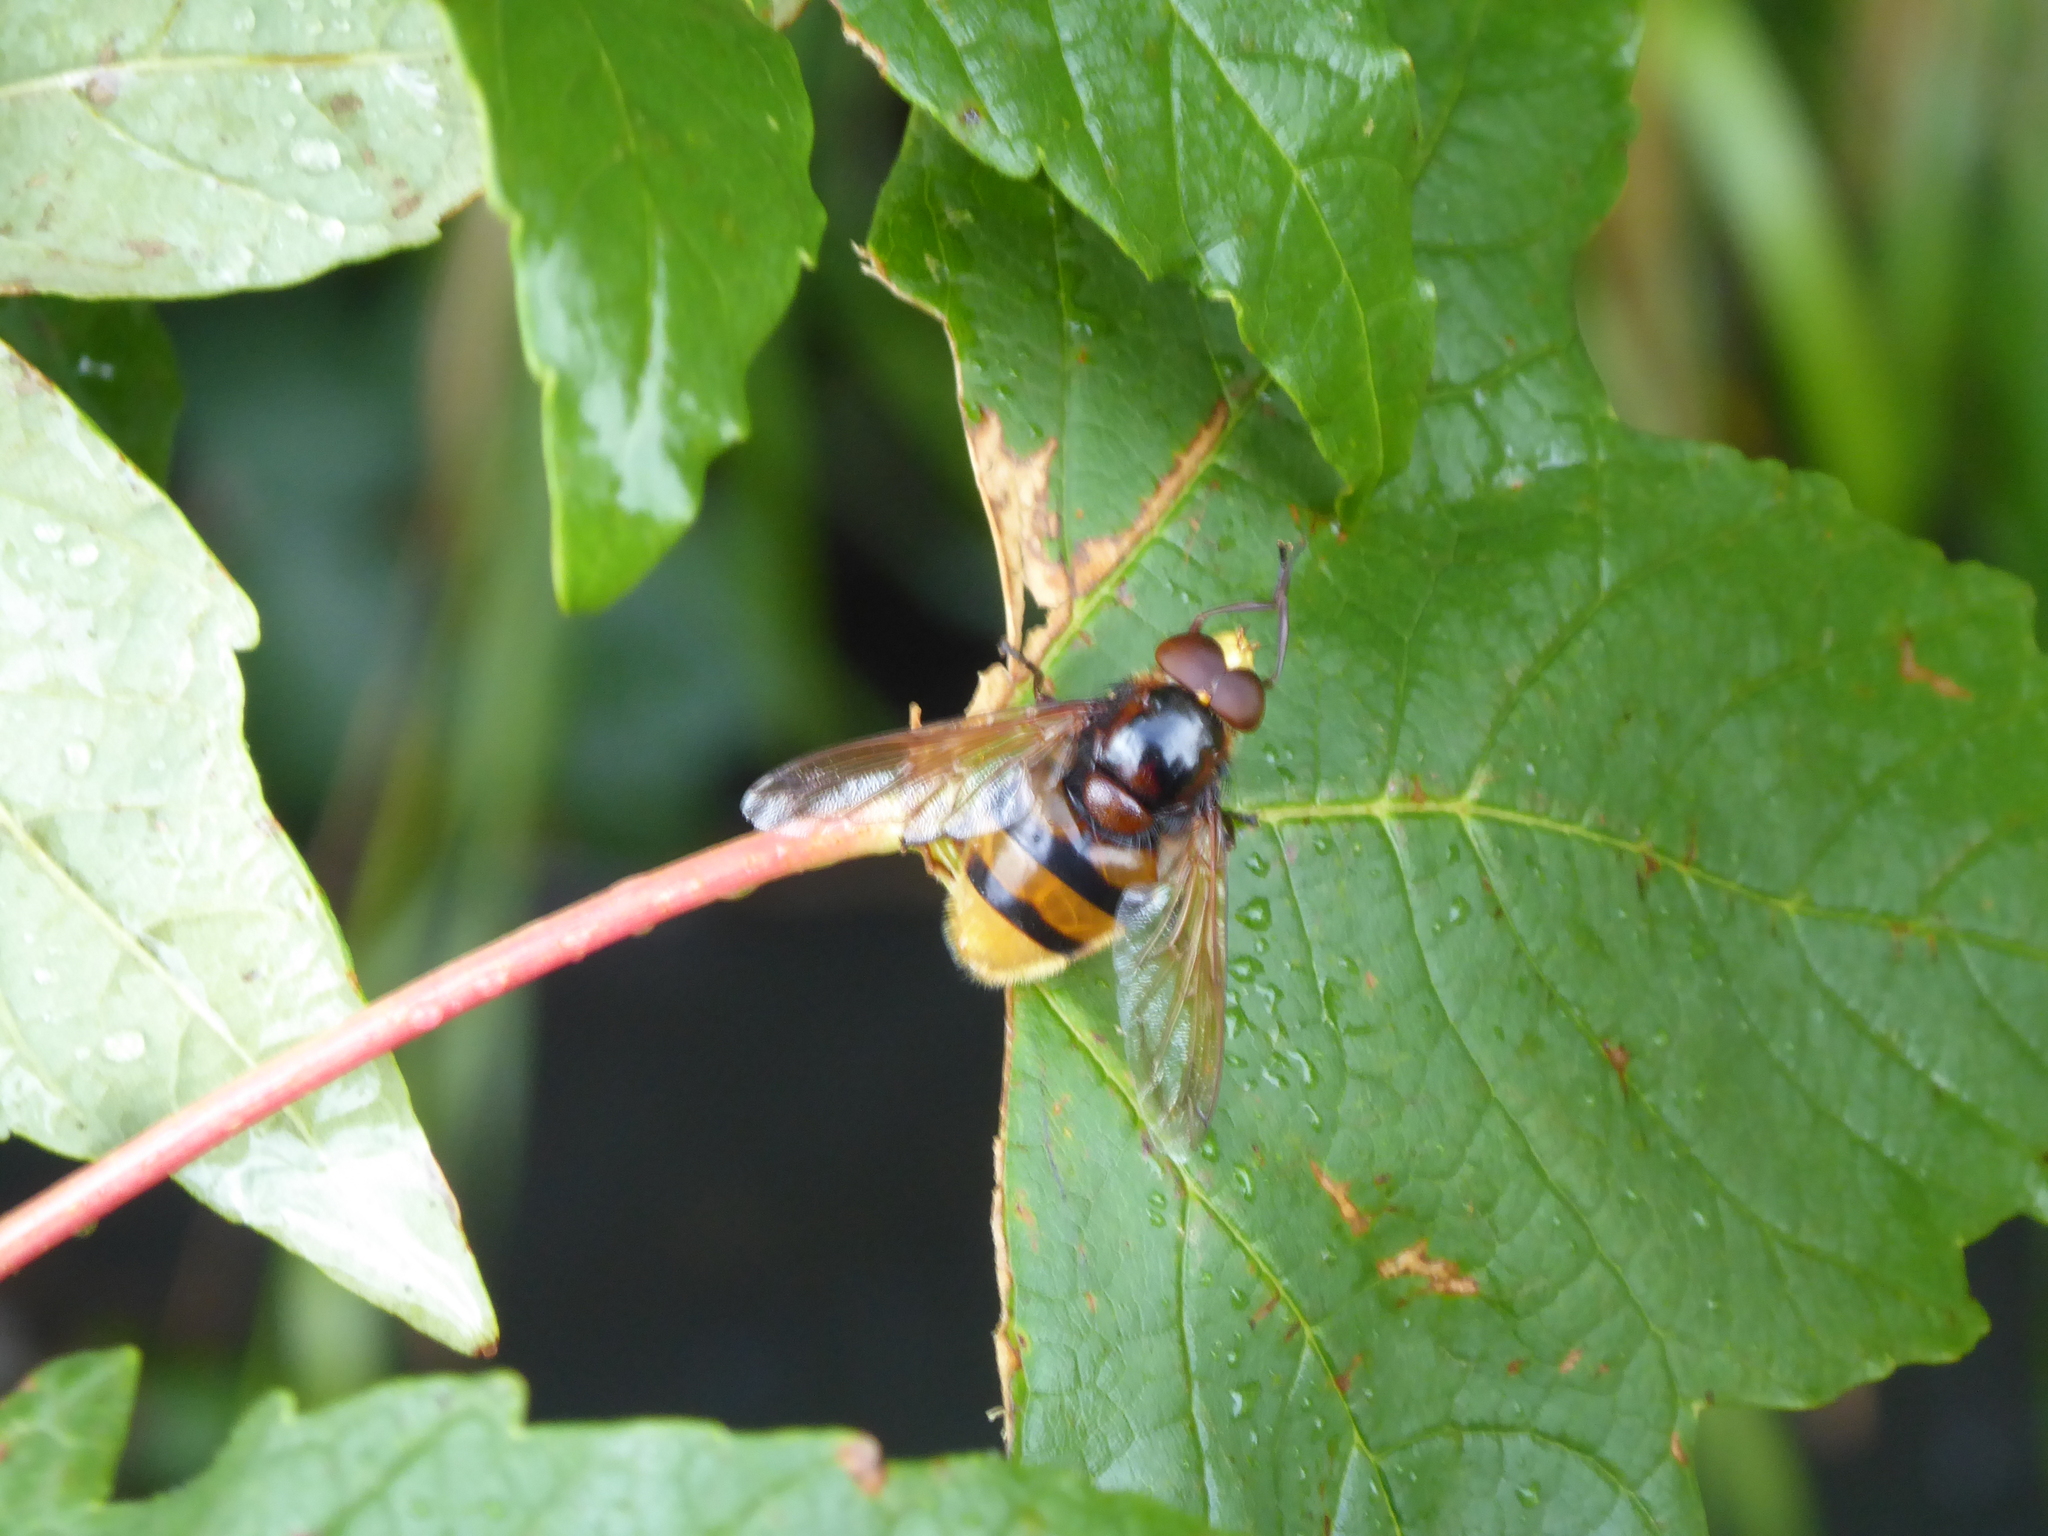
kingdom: Animalia
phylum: Arthropoda
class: Insecta
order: Diptera
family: Syrphidae
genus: Volucella
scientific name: Volucella zonaria
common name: Hornet hoverfly
